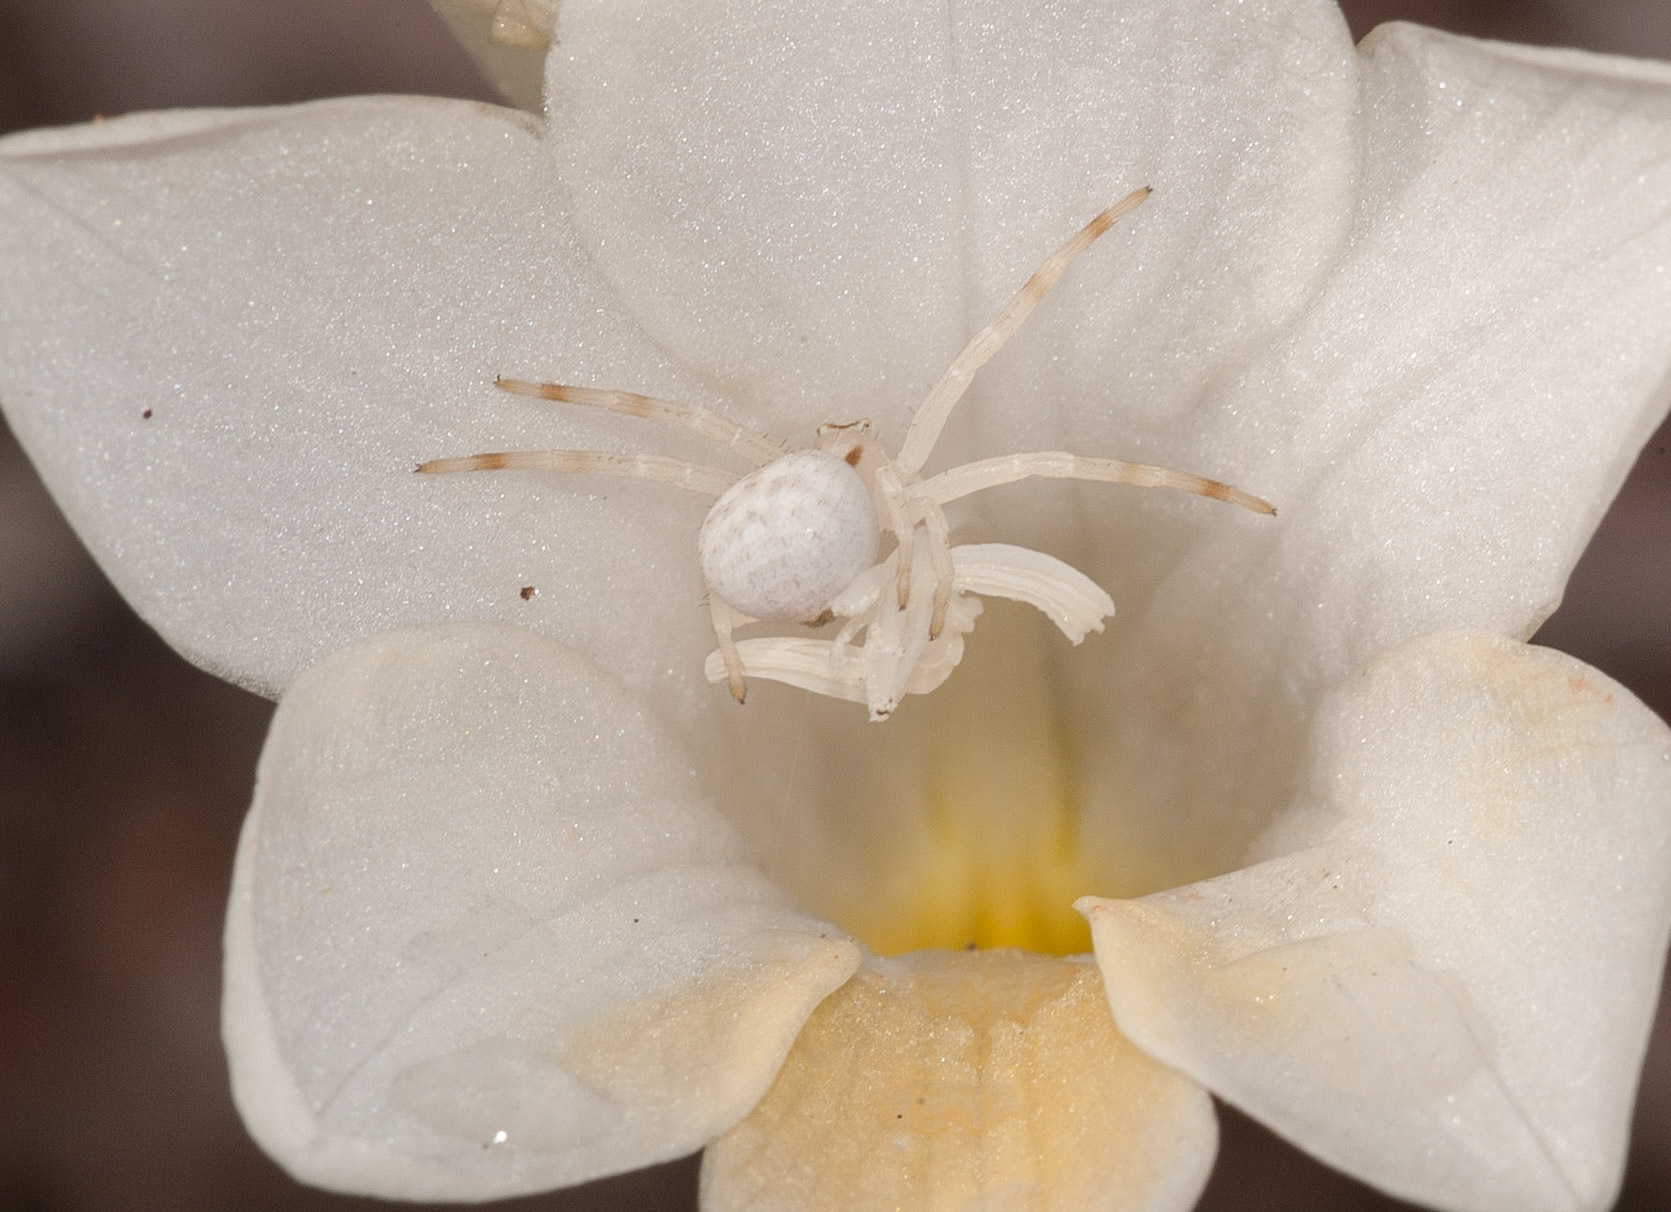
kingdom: Animalia
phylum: Arthropoda
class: Arachnida
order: Araneae
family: Thomisidae
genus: Zygometis
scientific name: Zygometis xanthogaster
